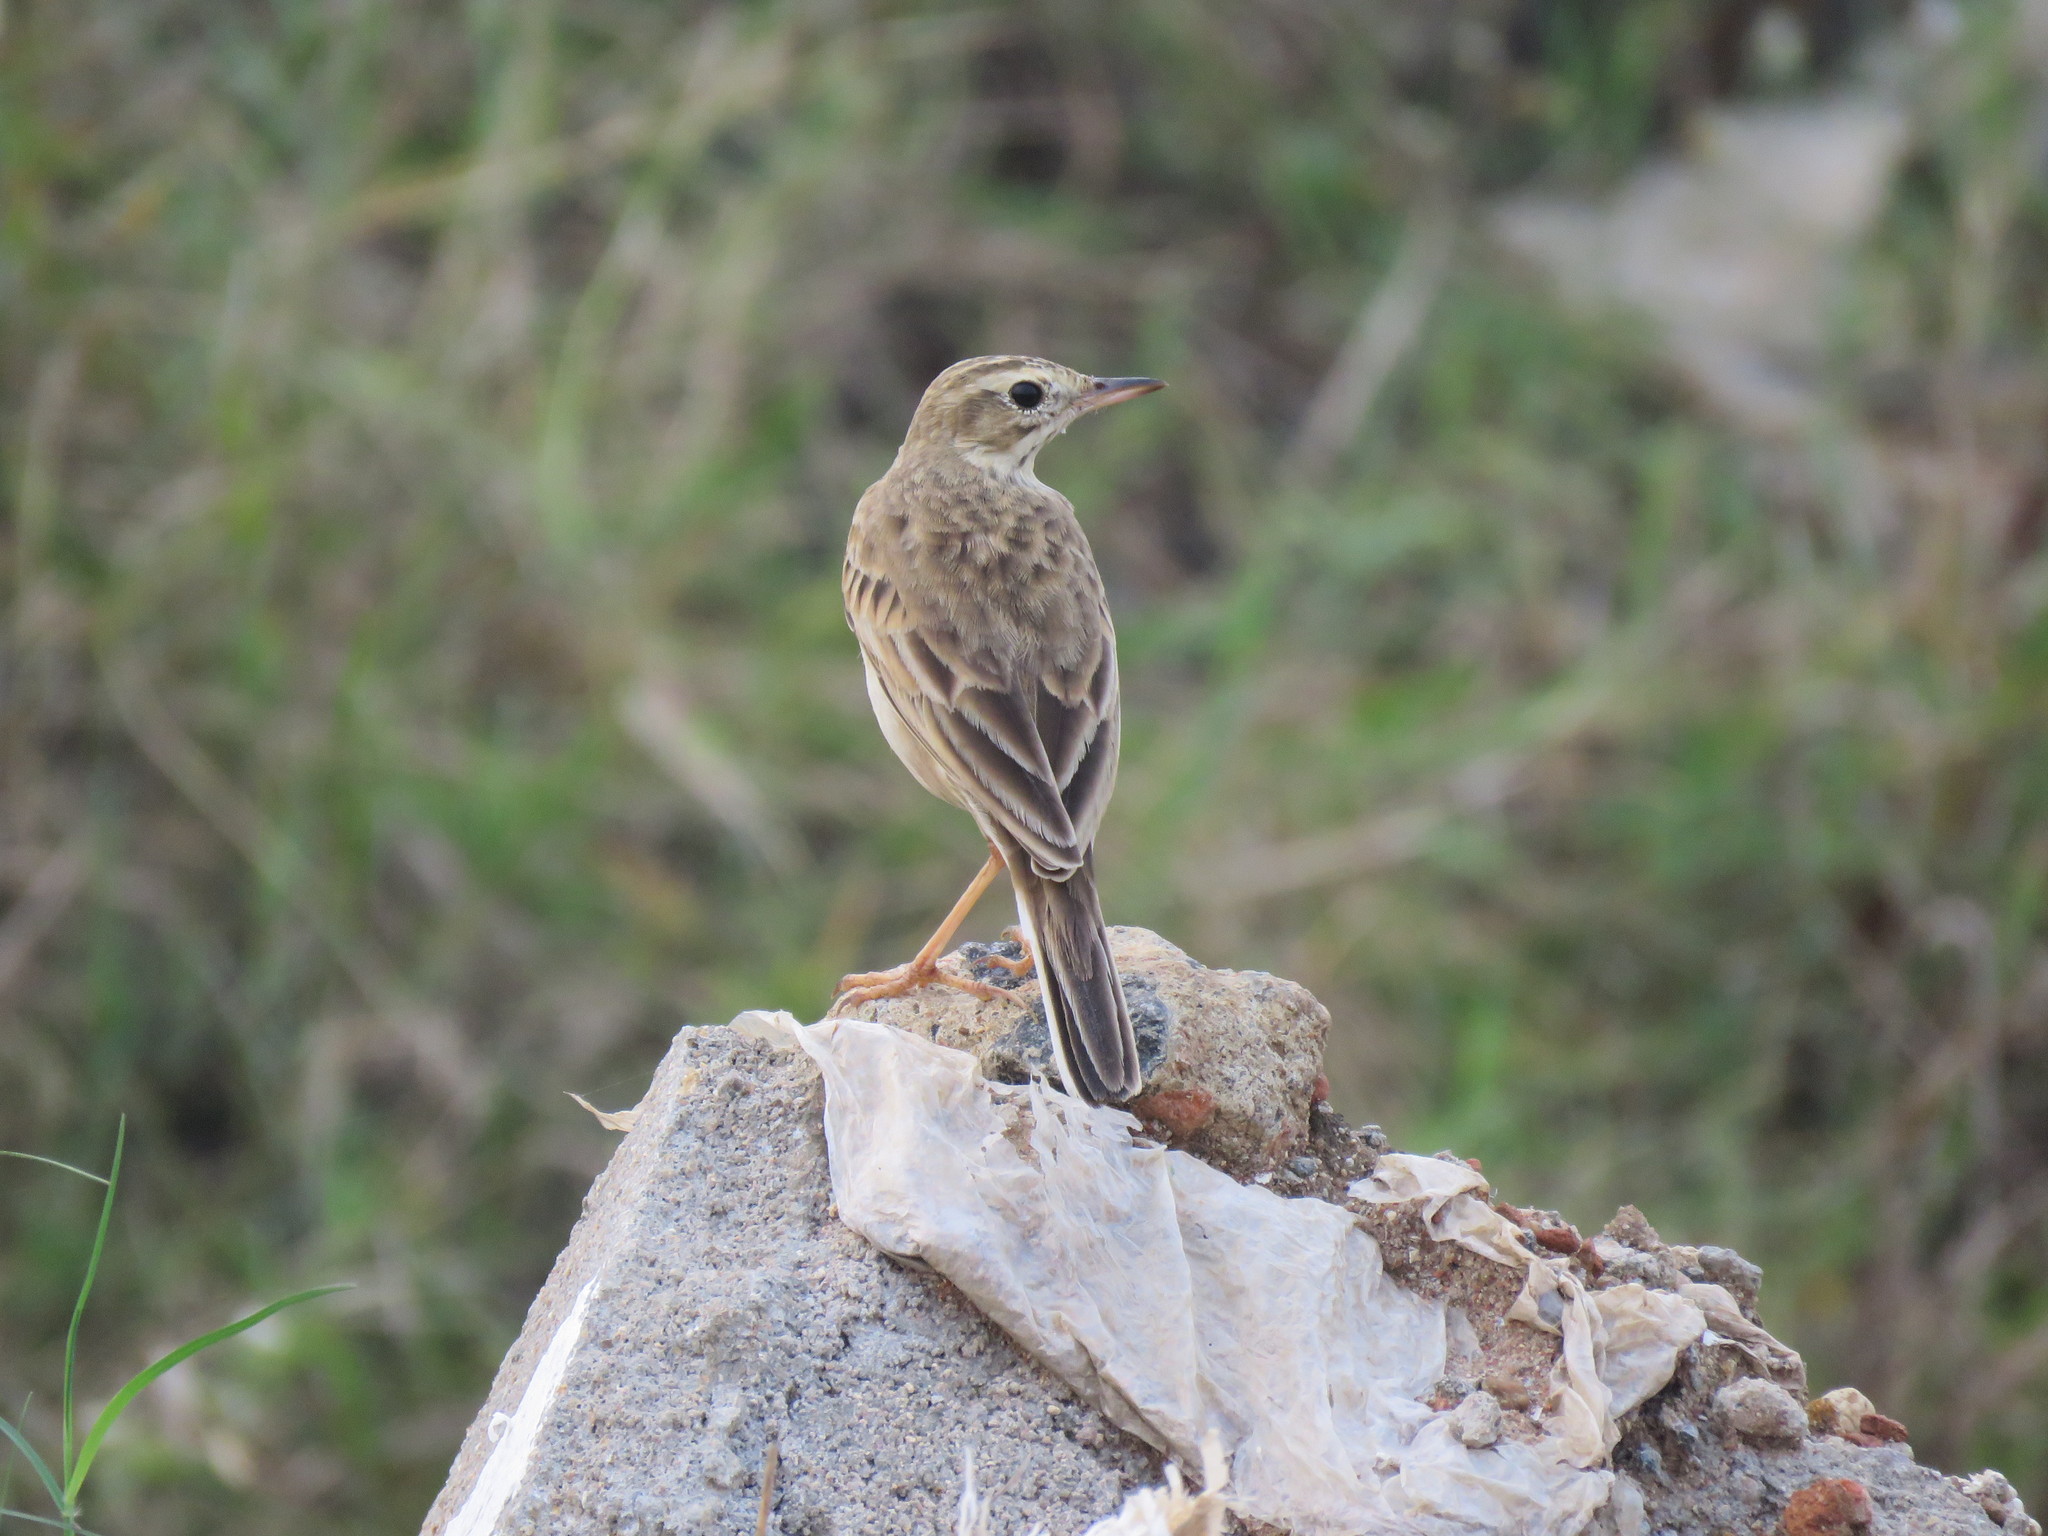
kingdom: Animalia
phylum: Chordata
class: Aves
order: Passeriformes
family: Motacillidae
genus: Anthus
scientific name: Anthus rufulus
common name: Paddyfield pipit
